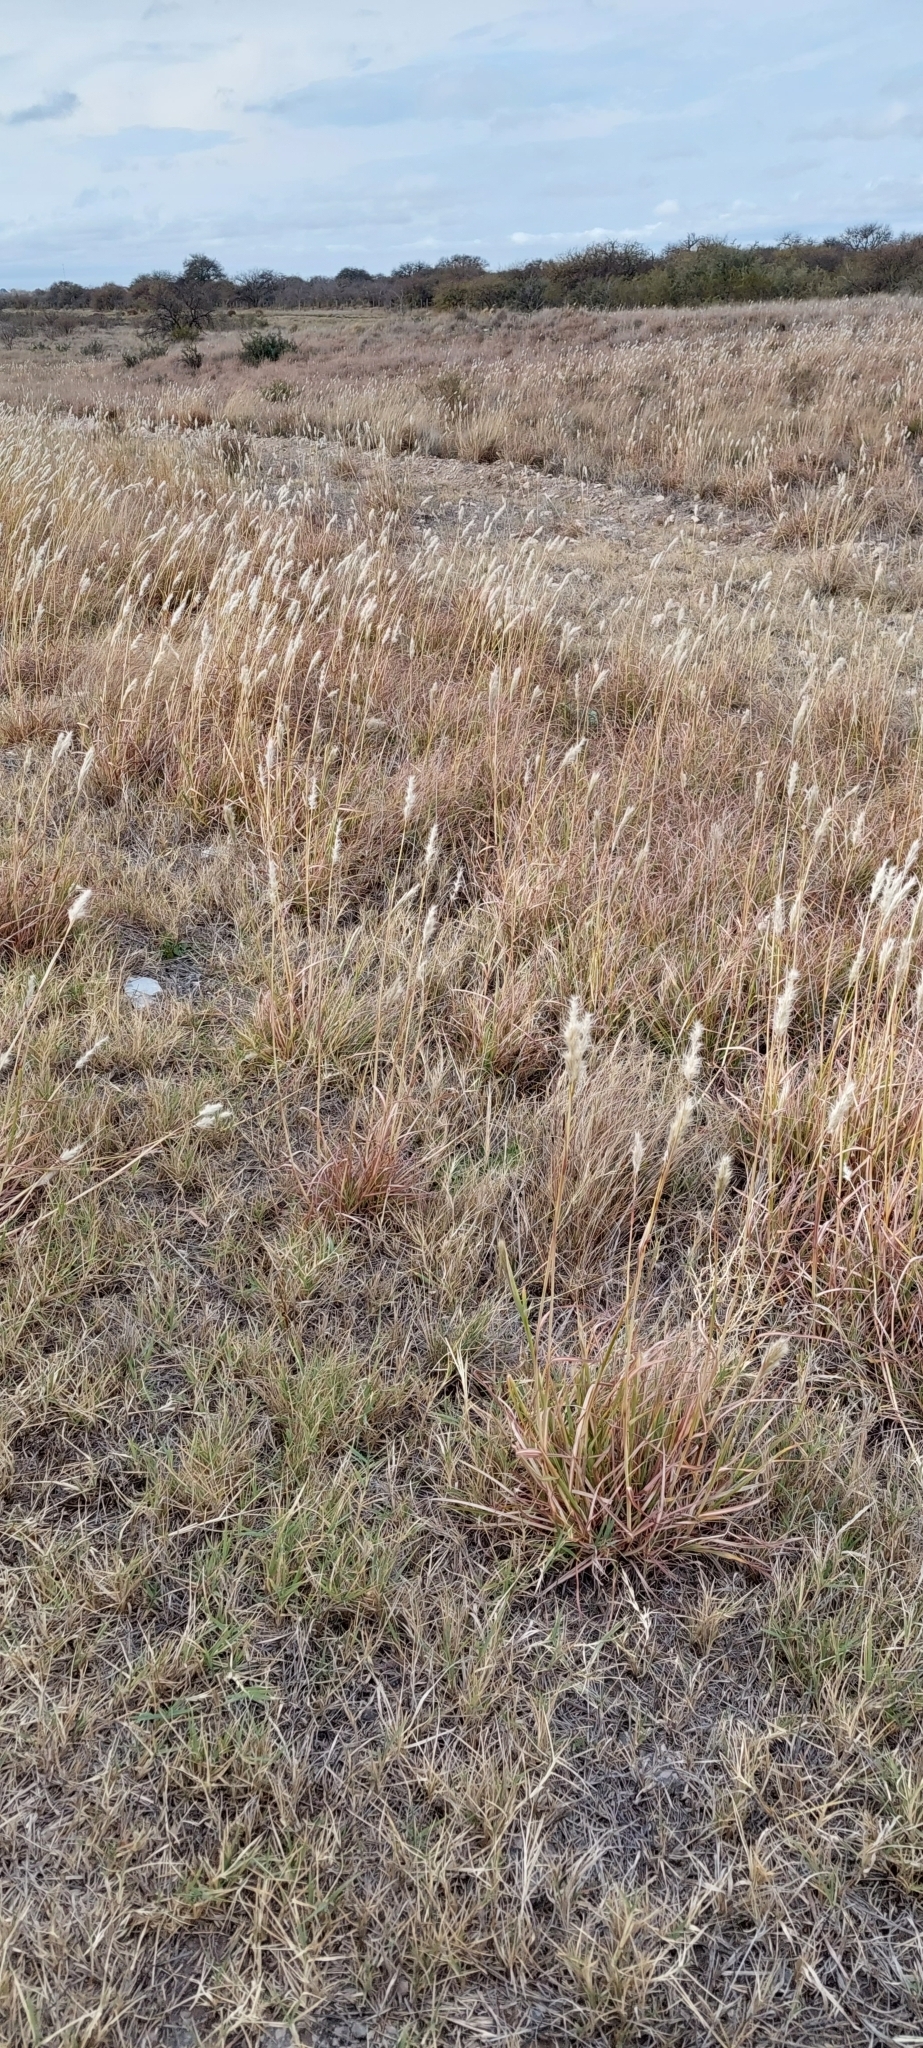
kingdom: Plantae
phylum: Tracheophyta
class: Liliopsida
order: Poales
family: Poaceae
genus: Bothriochloa
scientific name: Bothriochloa barbinodis
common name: Cane bluestem
